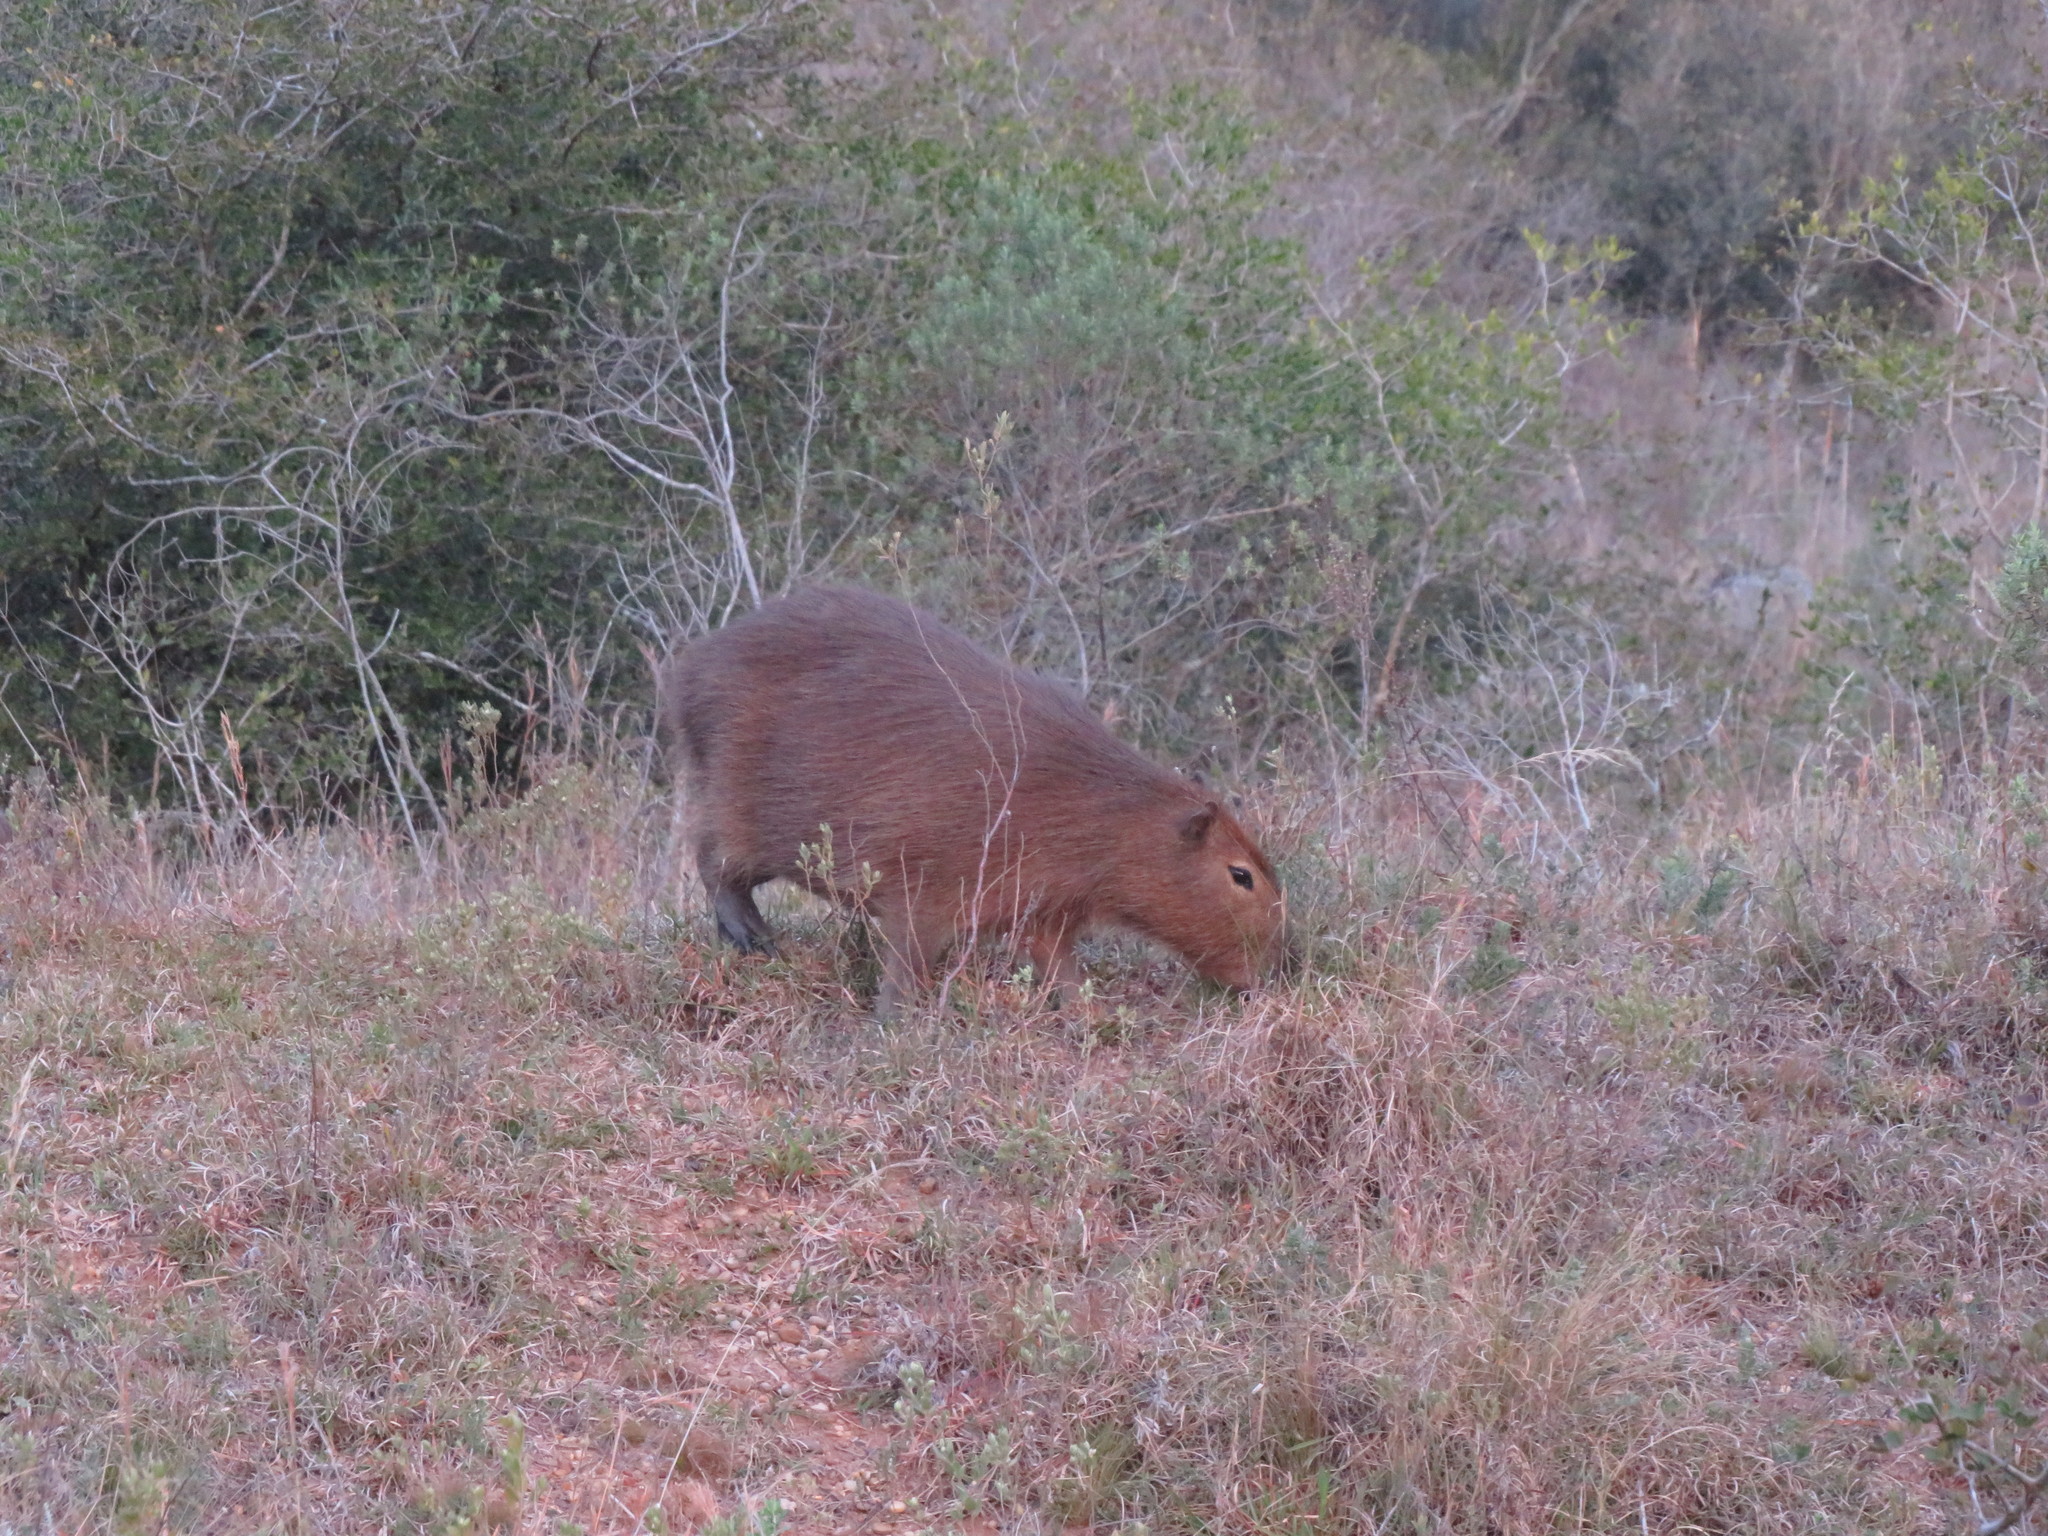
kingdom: Animalia
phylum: Chordata
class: Mammalia
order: Rodentia
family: Caviidae
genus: Hydrochoerus
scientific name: Hydrochoerus hydrochaeris
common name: Capybara
